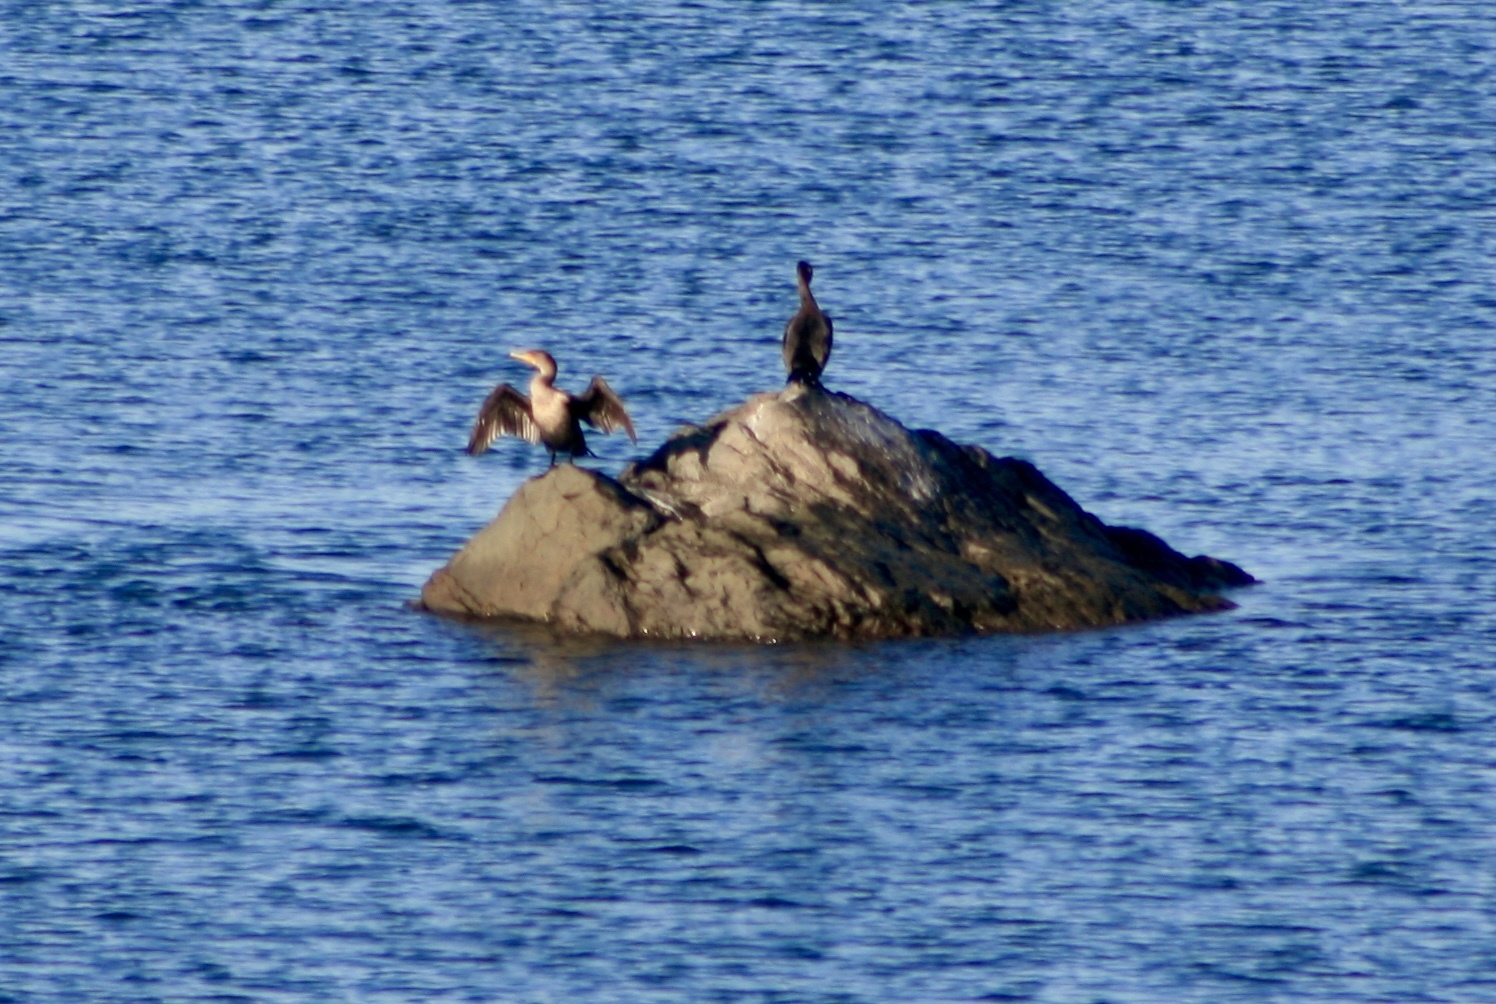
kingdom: Animalia
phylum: Chordata
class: Aves
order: Suliformes
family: Phalacrocoracidae
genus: Phalacrocorax
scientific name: Phalacrocorax auritus
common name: Double-crested cormorant
